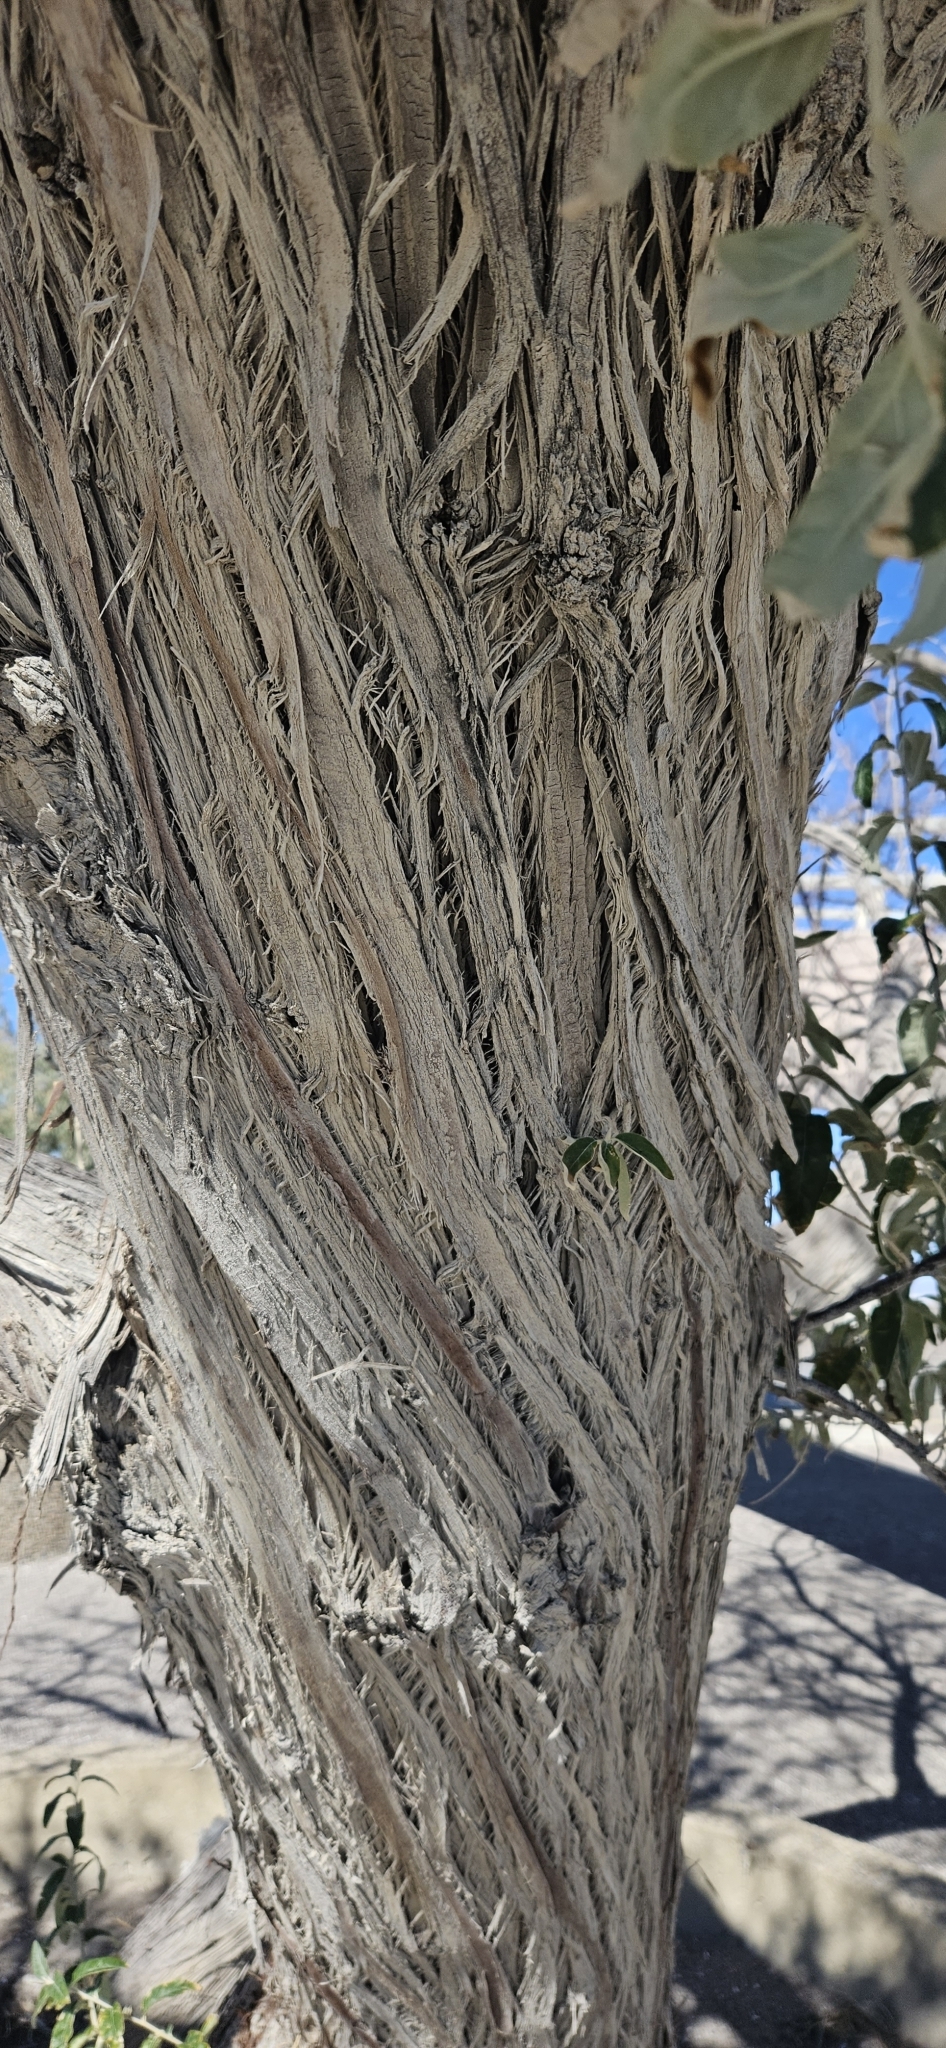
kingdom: Plantae
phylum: Tracheophyta
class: Magnoliopsida
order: Rosales
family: Elaeagnaceae
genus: Elaeagnus
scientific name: Elaeagnus angustifolia
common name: Russian olive
